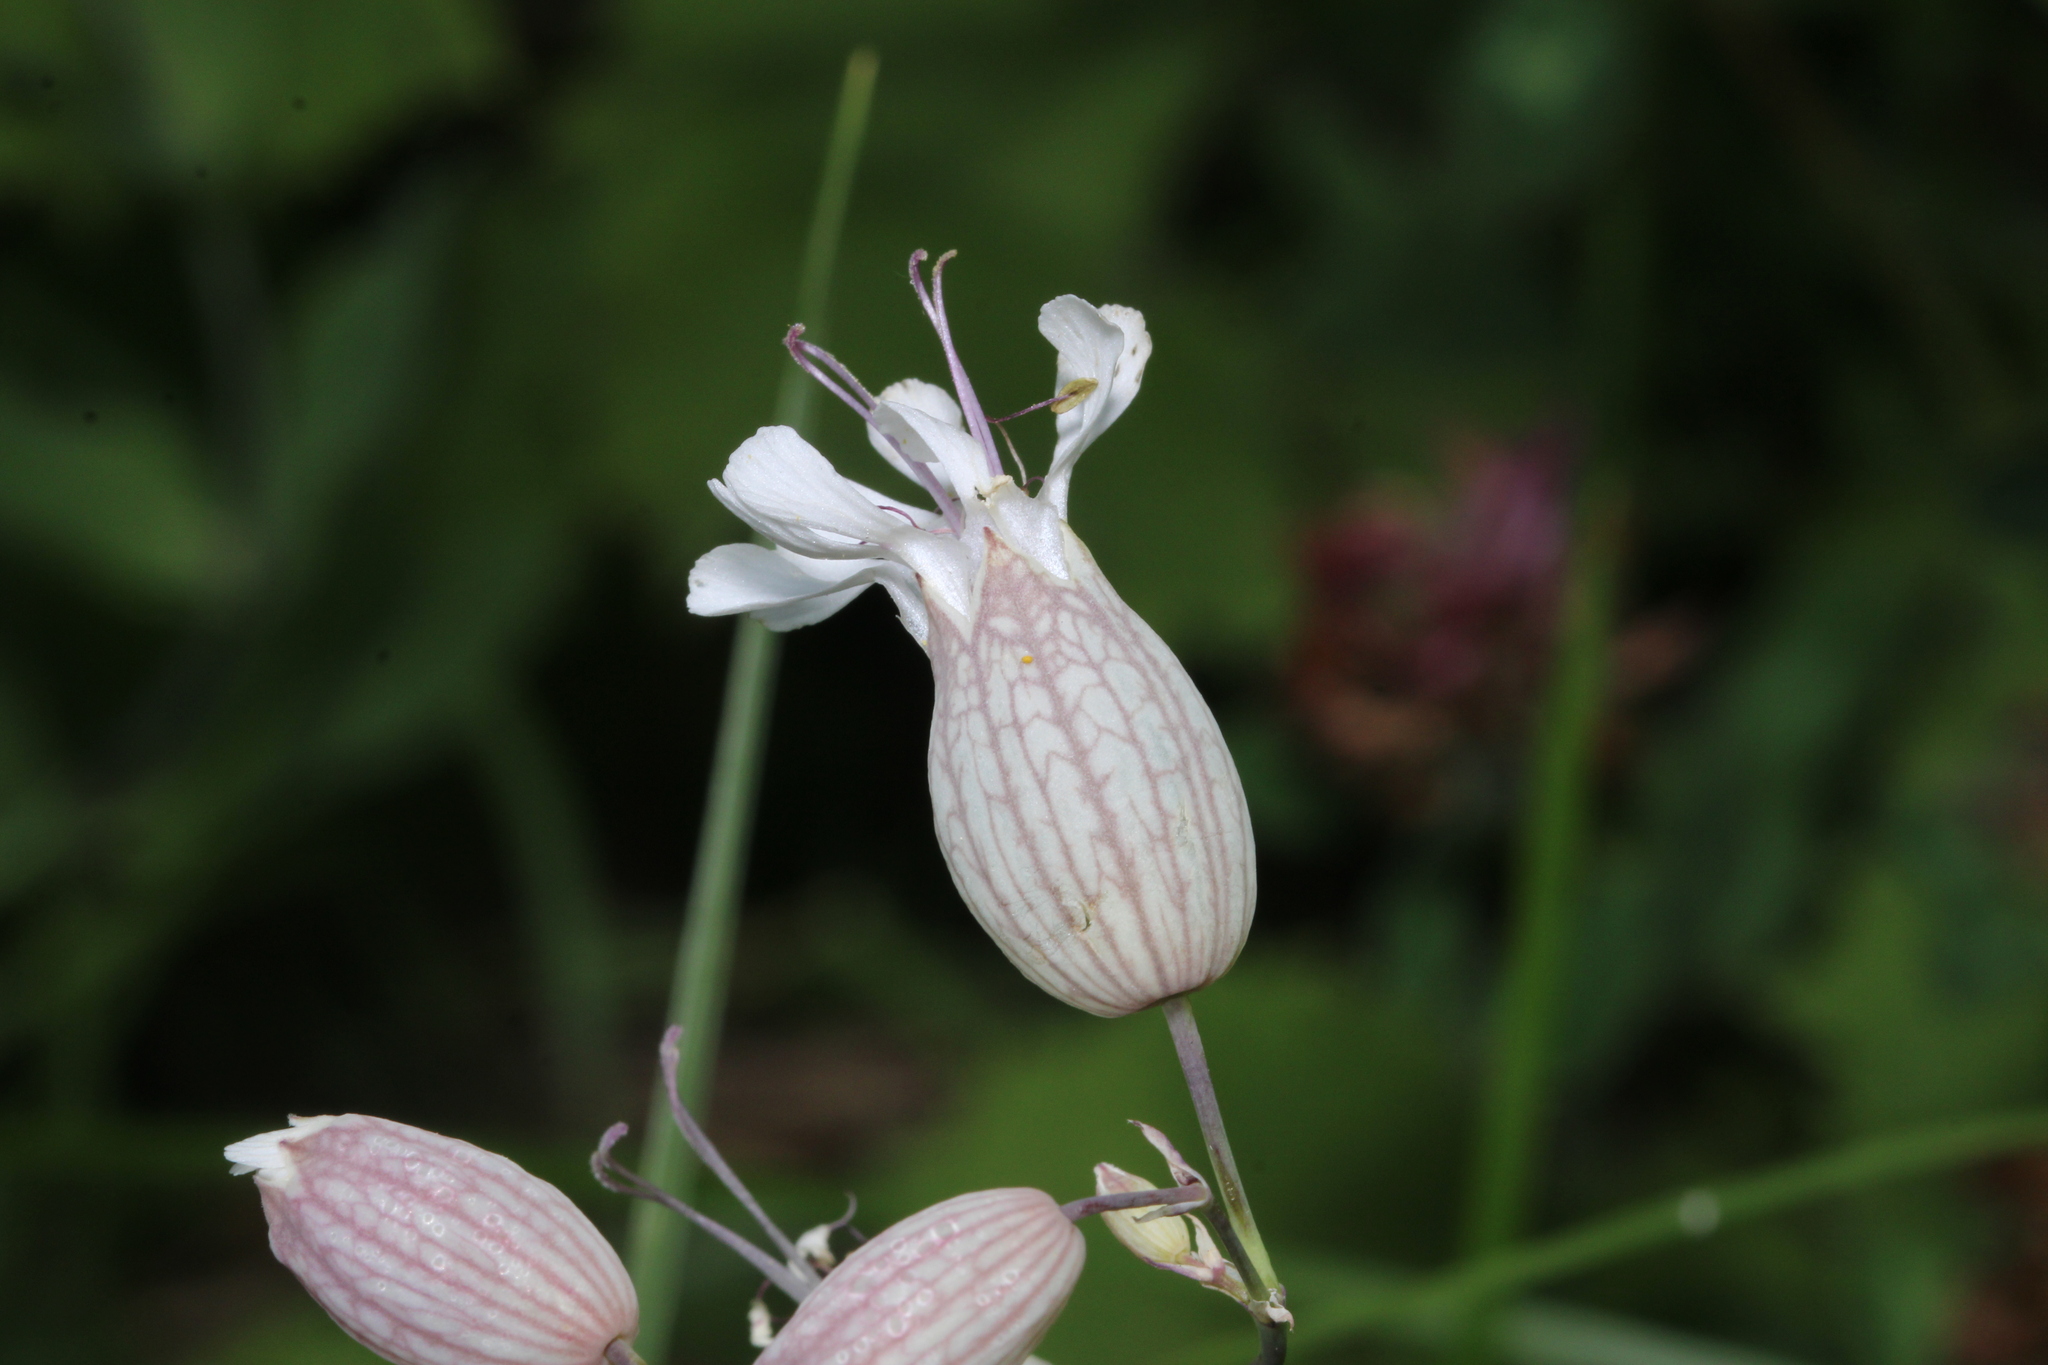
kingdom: Plantae
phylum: Tracheophyta
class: Magnoliopsida
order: Caryophyllales
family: Caryophyllaceae
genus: Silene
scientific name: Silene vulgaris
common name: Bladder campion
